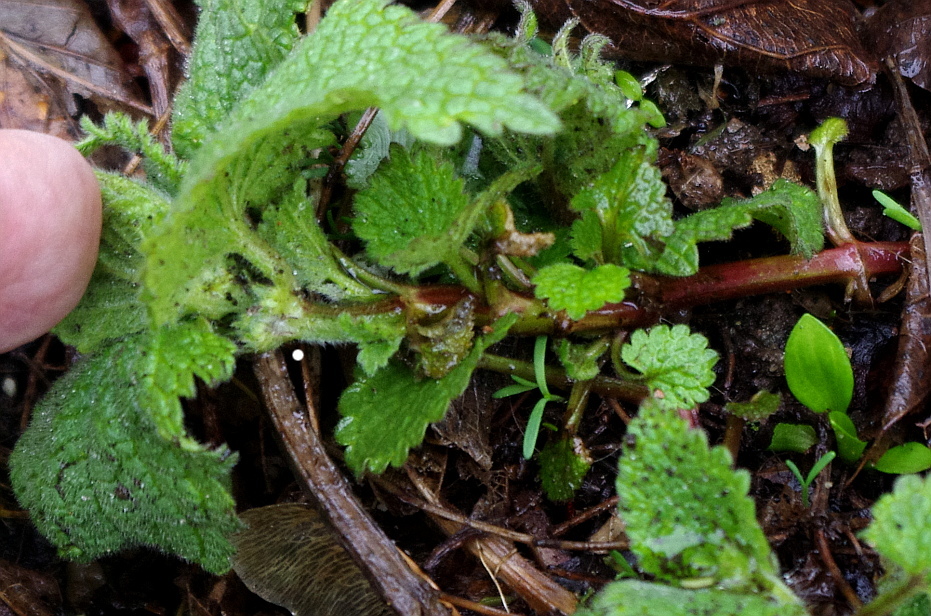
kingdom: Plantae
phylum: Tracheophyta
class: Magnoliopsida
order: Lamiales
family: Lamiaceae
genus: Lamium
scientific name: Lamium album
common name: White dead-nettle
